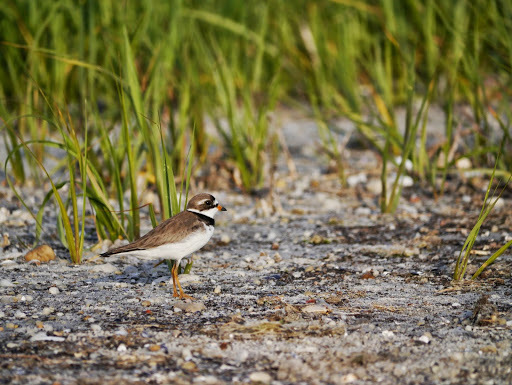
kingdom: Animalia
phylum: Chordata
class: Aves
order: Charadriiformes
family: Charadriidae
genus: Charadrius
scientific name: Charadrius semipalmatus
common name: Semipalmated plover
